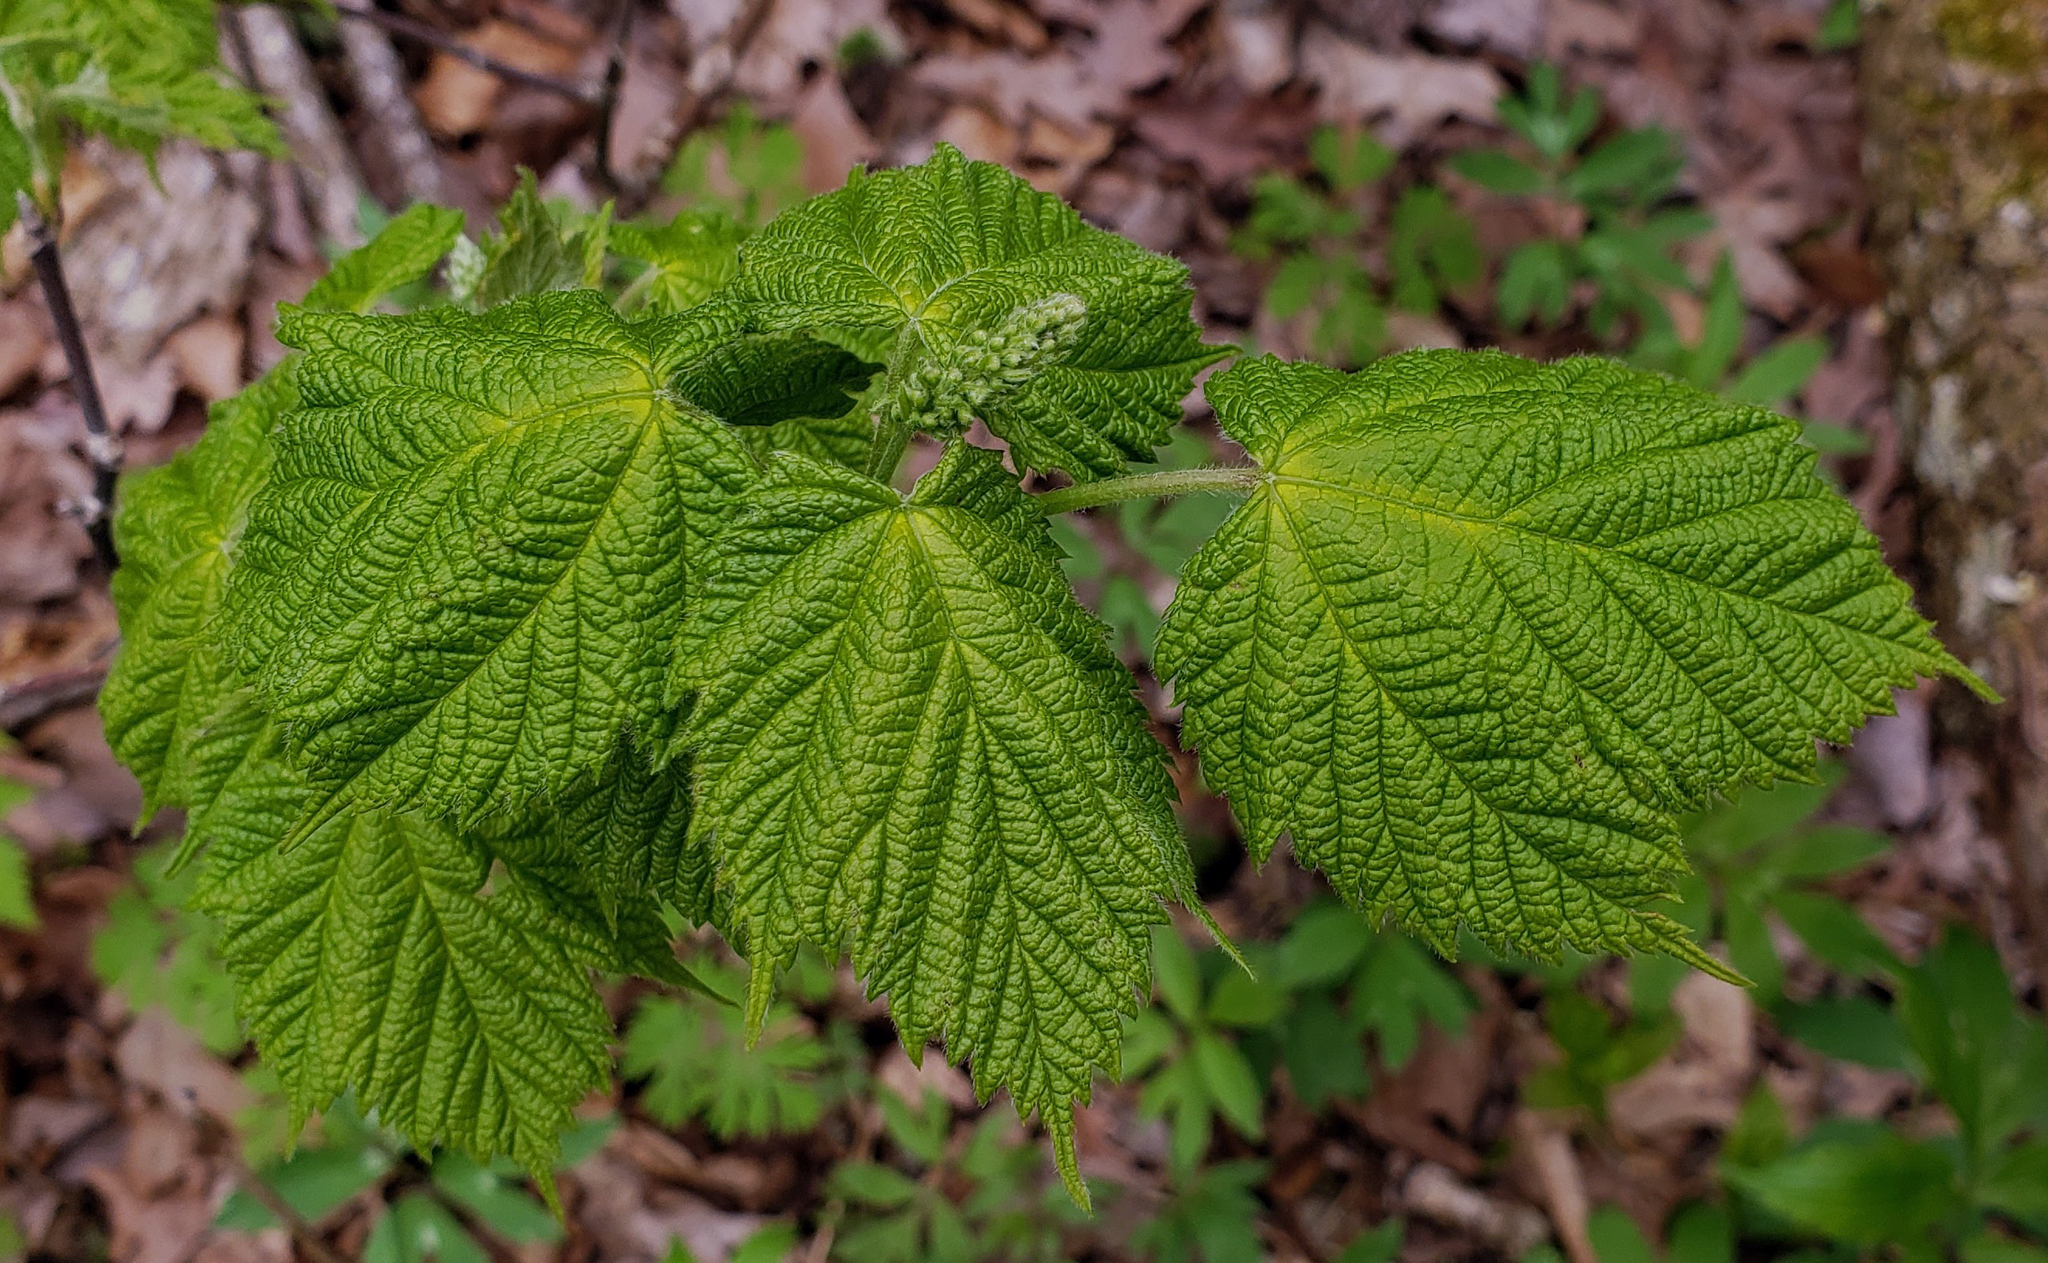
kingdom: Plantae
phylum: Tracheophyta
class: Magnoliopsida
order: Sapindales
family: Sapindaceae
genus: Acer
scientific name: Acer spicatum
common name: Mountain maple
